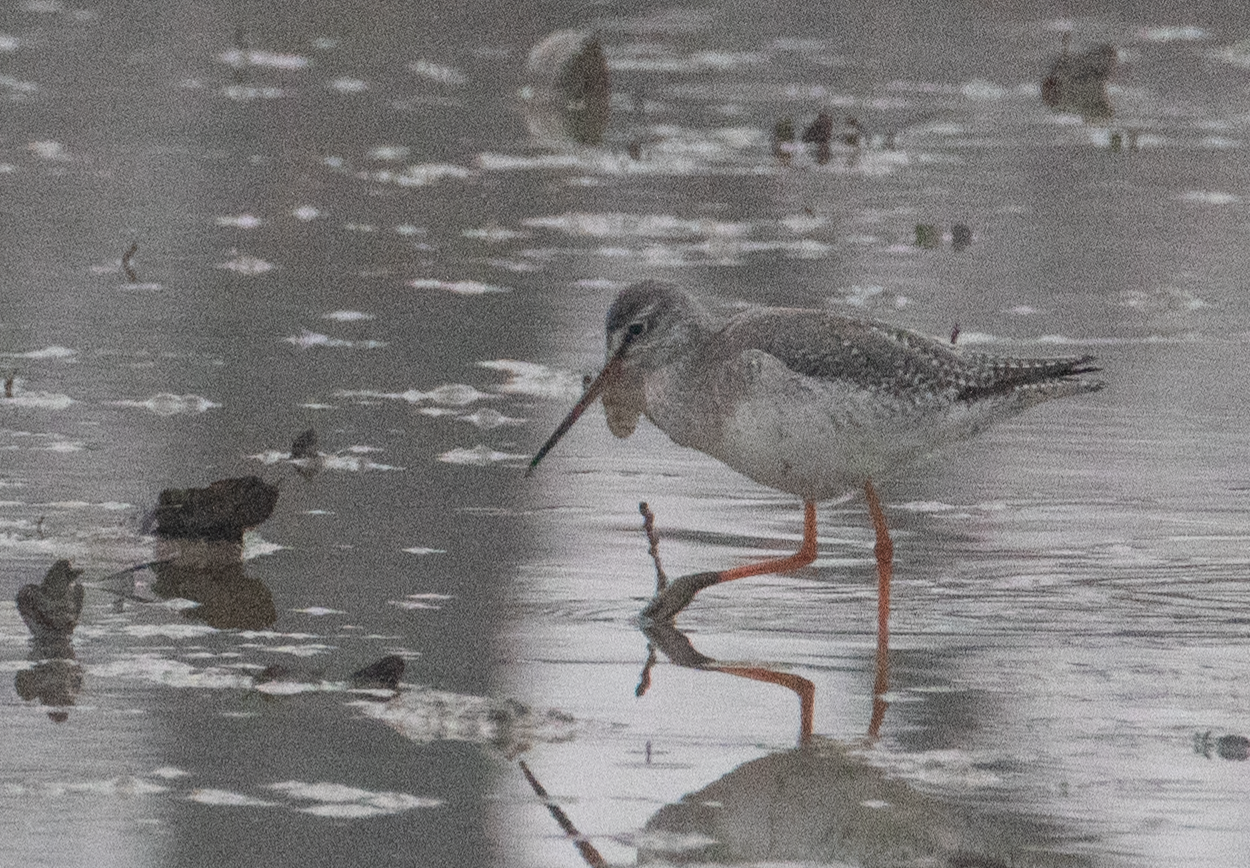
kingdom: Animalia
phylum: Chordata
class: Aves
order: Charadriiformes
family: Scolopacidae
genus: Tringa
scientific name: Tringa erythropus
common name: Spotted redshank
